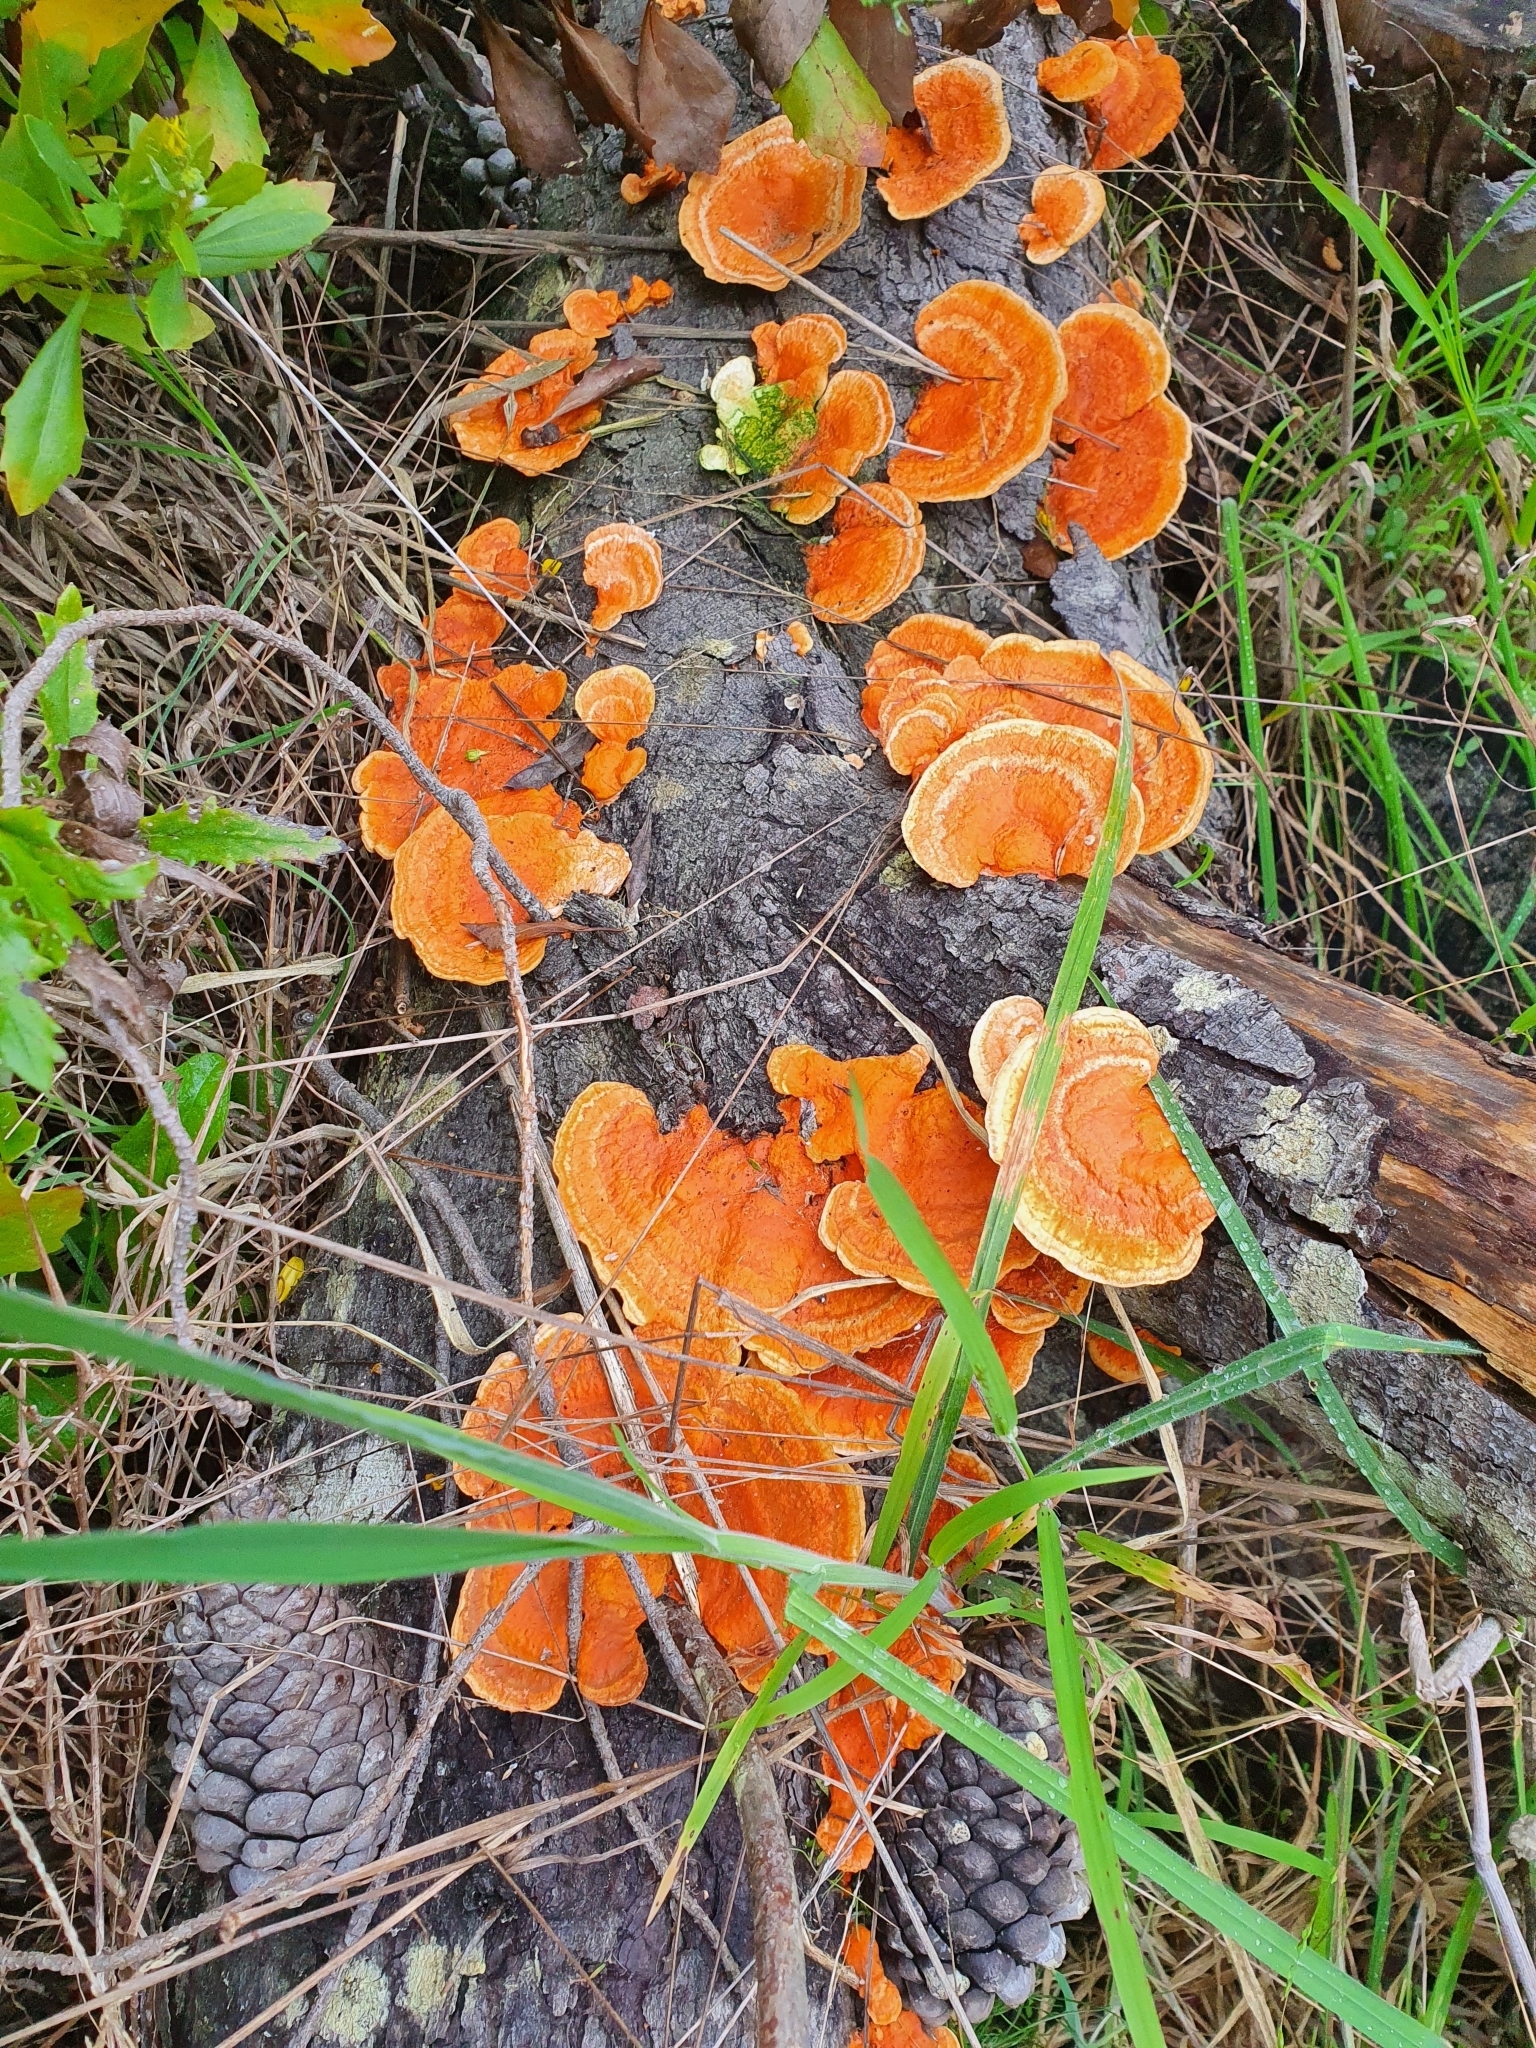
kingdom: Fungi
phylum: Basidiomycota
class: Agaricomycetes
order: Polyporales
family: Polyporaceae
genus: Trametes
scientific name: Trametes coccinea
